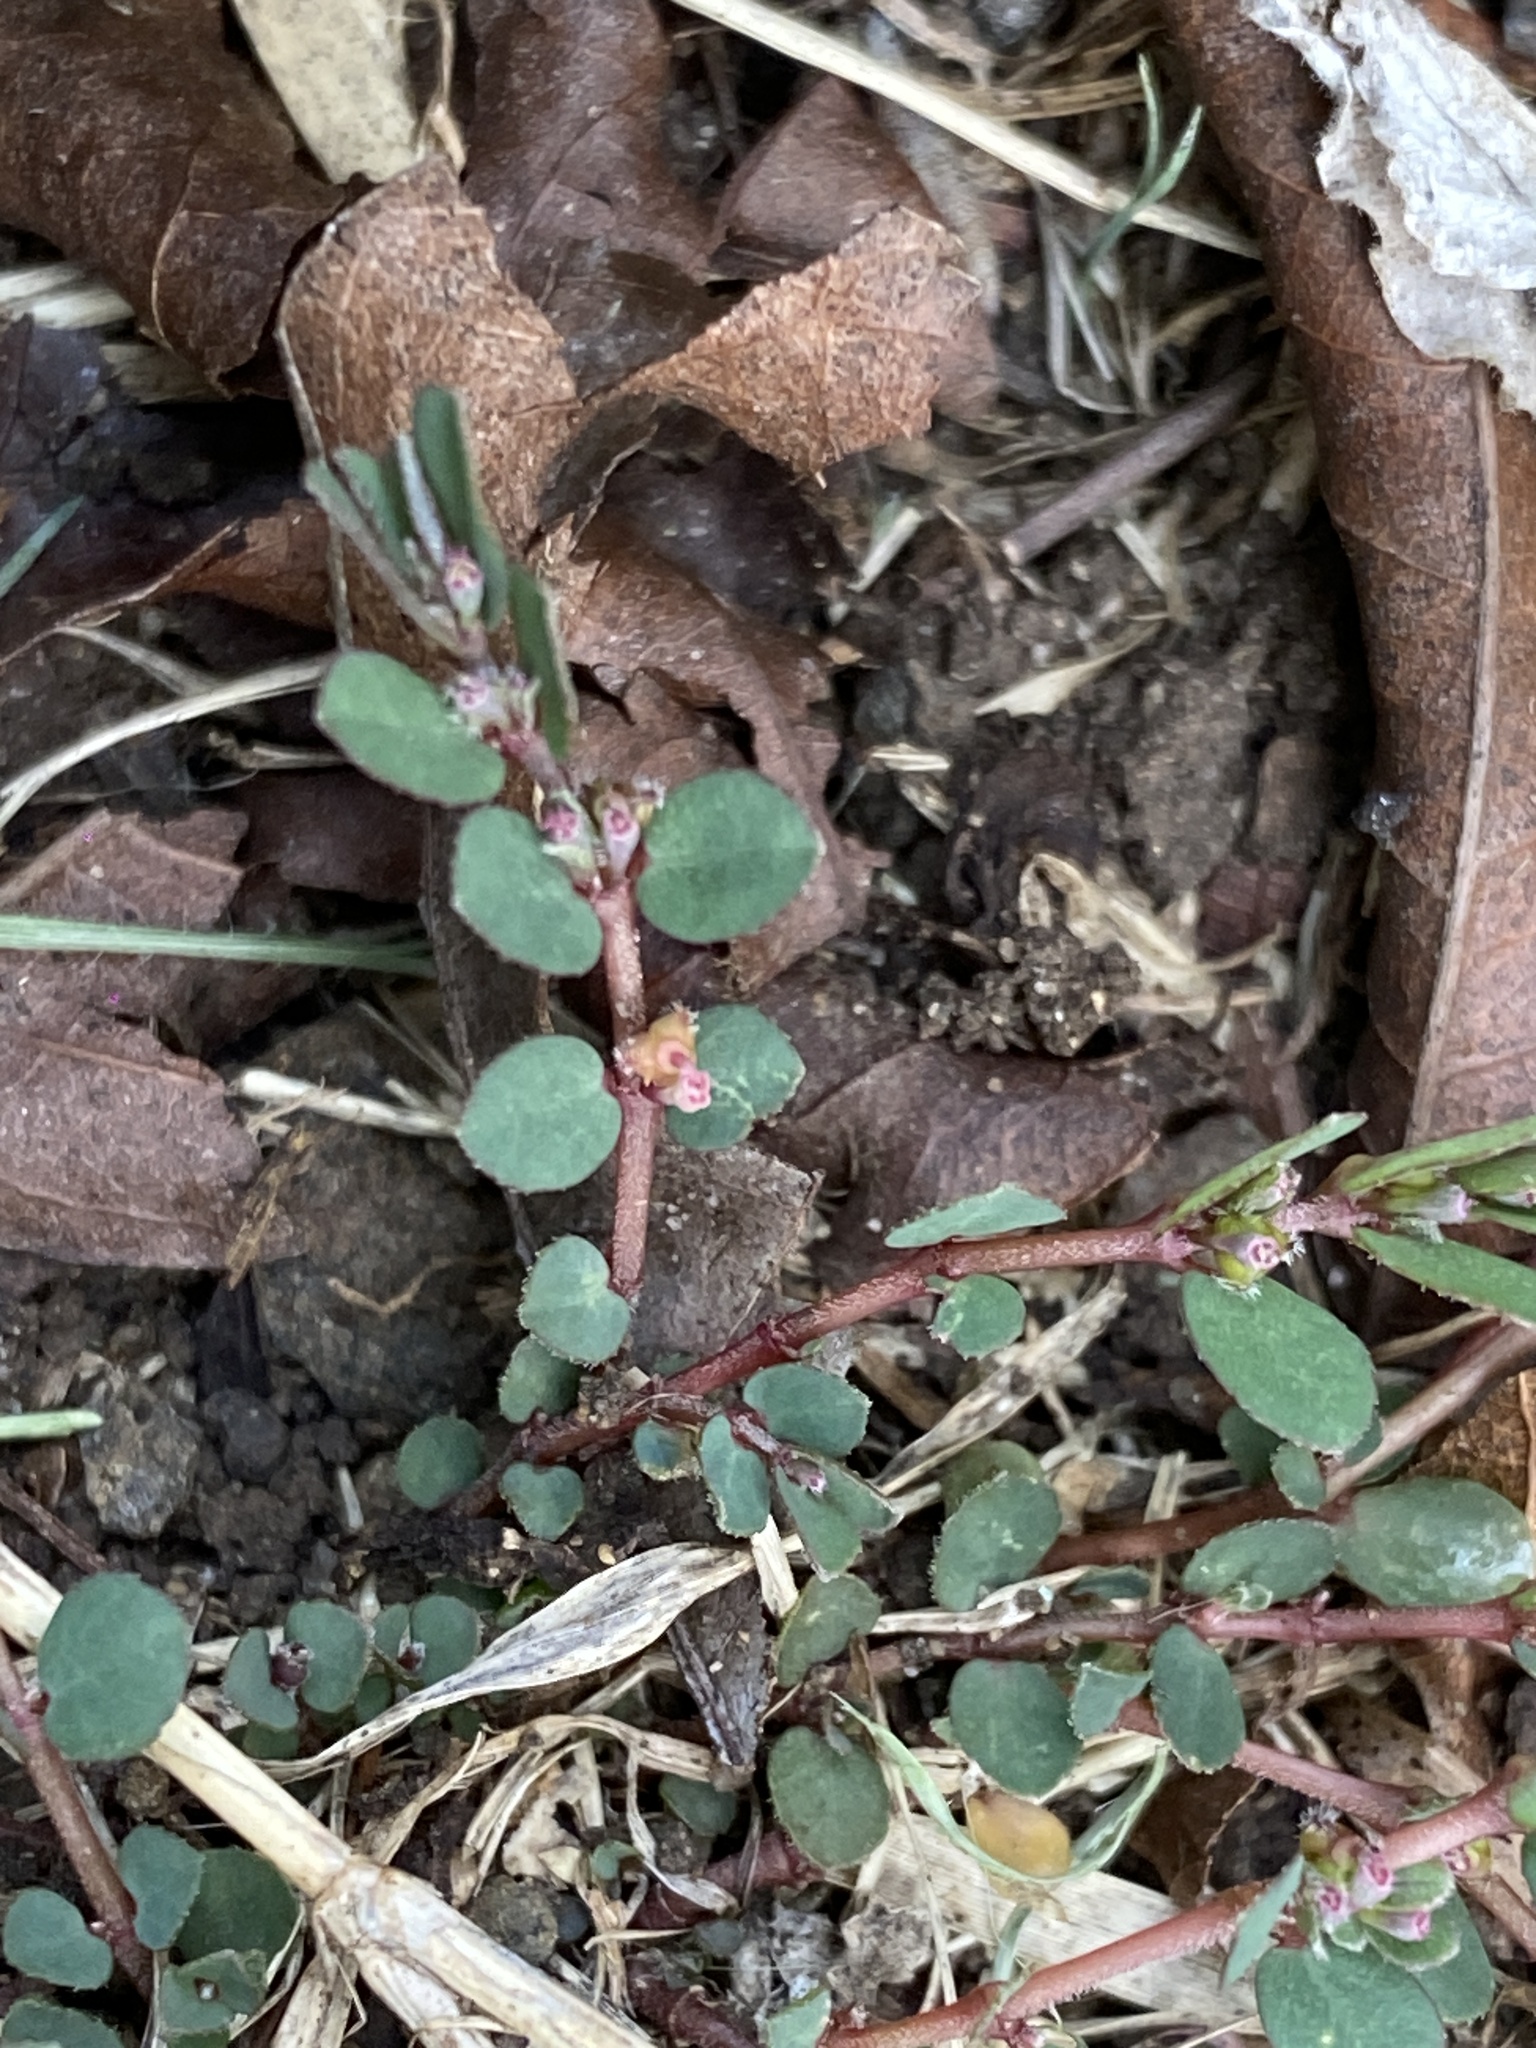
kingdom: Plantae
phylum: Tracheophyta
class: Magnoliopsida
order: Malpighiales
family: Euphorbiaceae
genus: Euphorbia
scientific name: Euphorbia prostrata
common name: Prostrate sandmat
